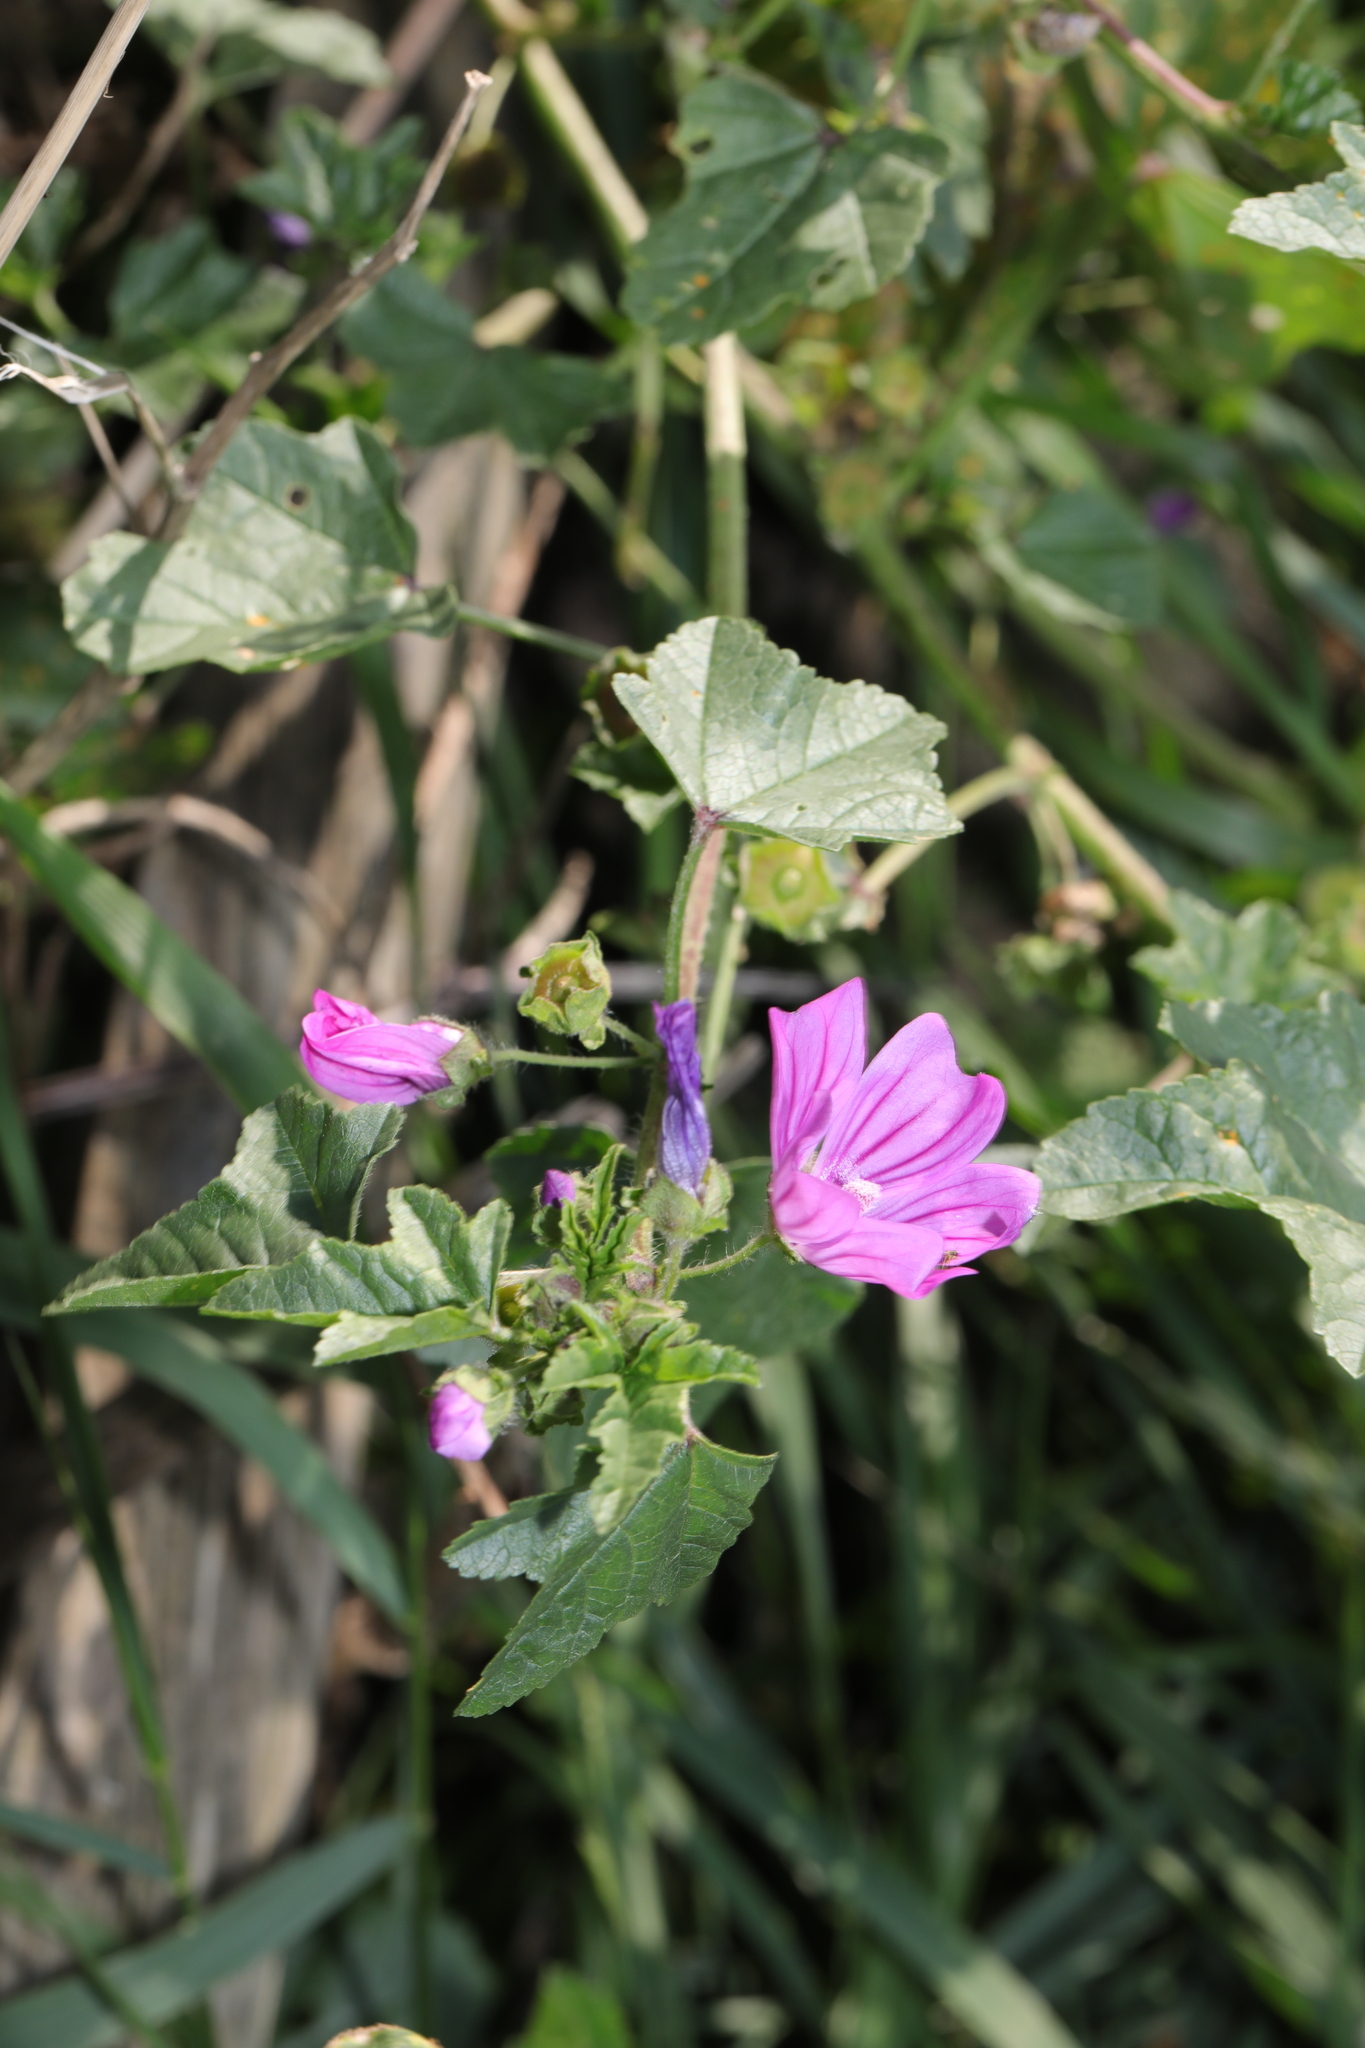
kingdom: Plantae
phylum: Tracheophyta
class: Magnoliopsida
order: Malvales
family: Malvaceae
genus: Malva
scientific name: Malva sylvestris
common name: Common mallow
